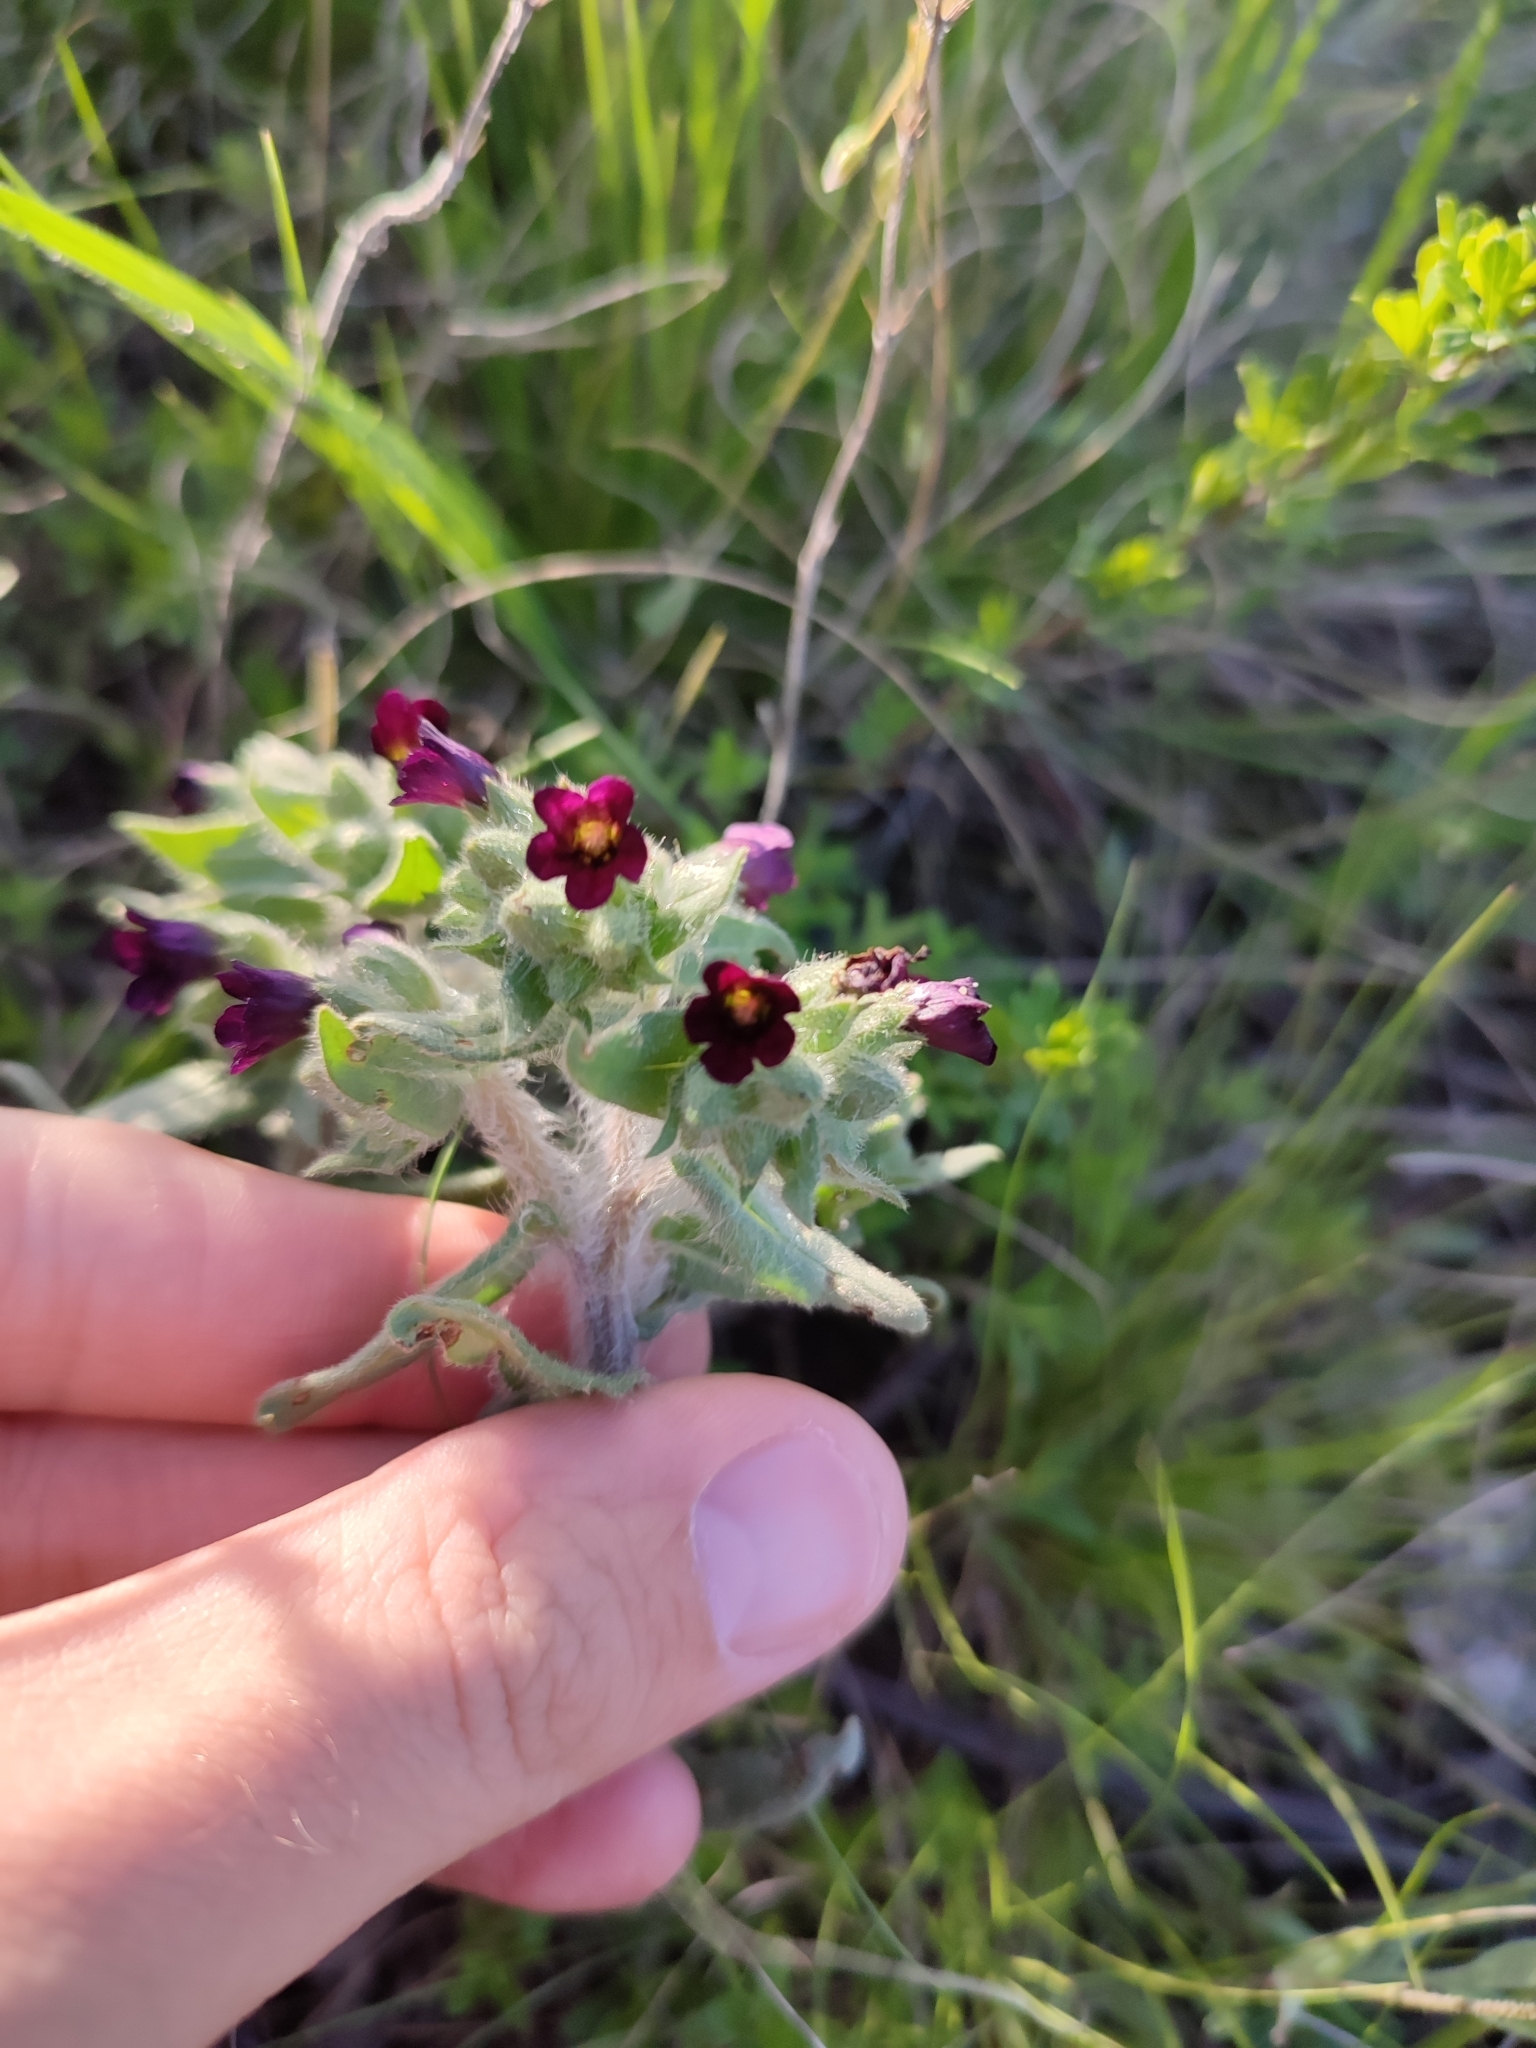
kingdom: Plantae
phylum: Tracheophyta
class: Magnoliopsida
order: Boraginales
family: Boraginaceae
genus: Nonea
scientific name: Nonea pulla
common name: Brown nonea
